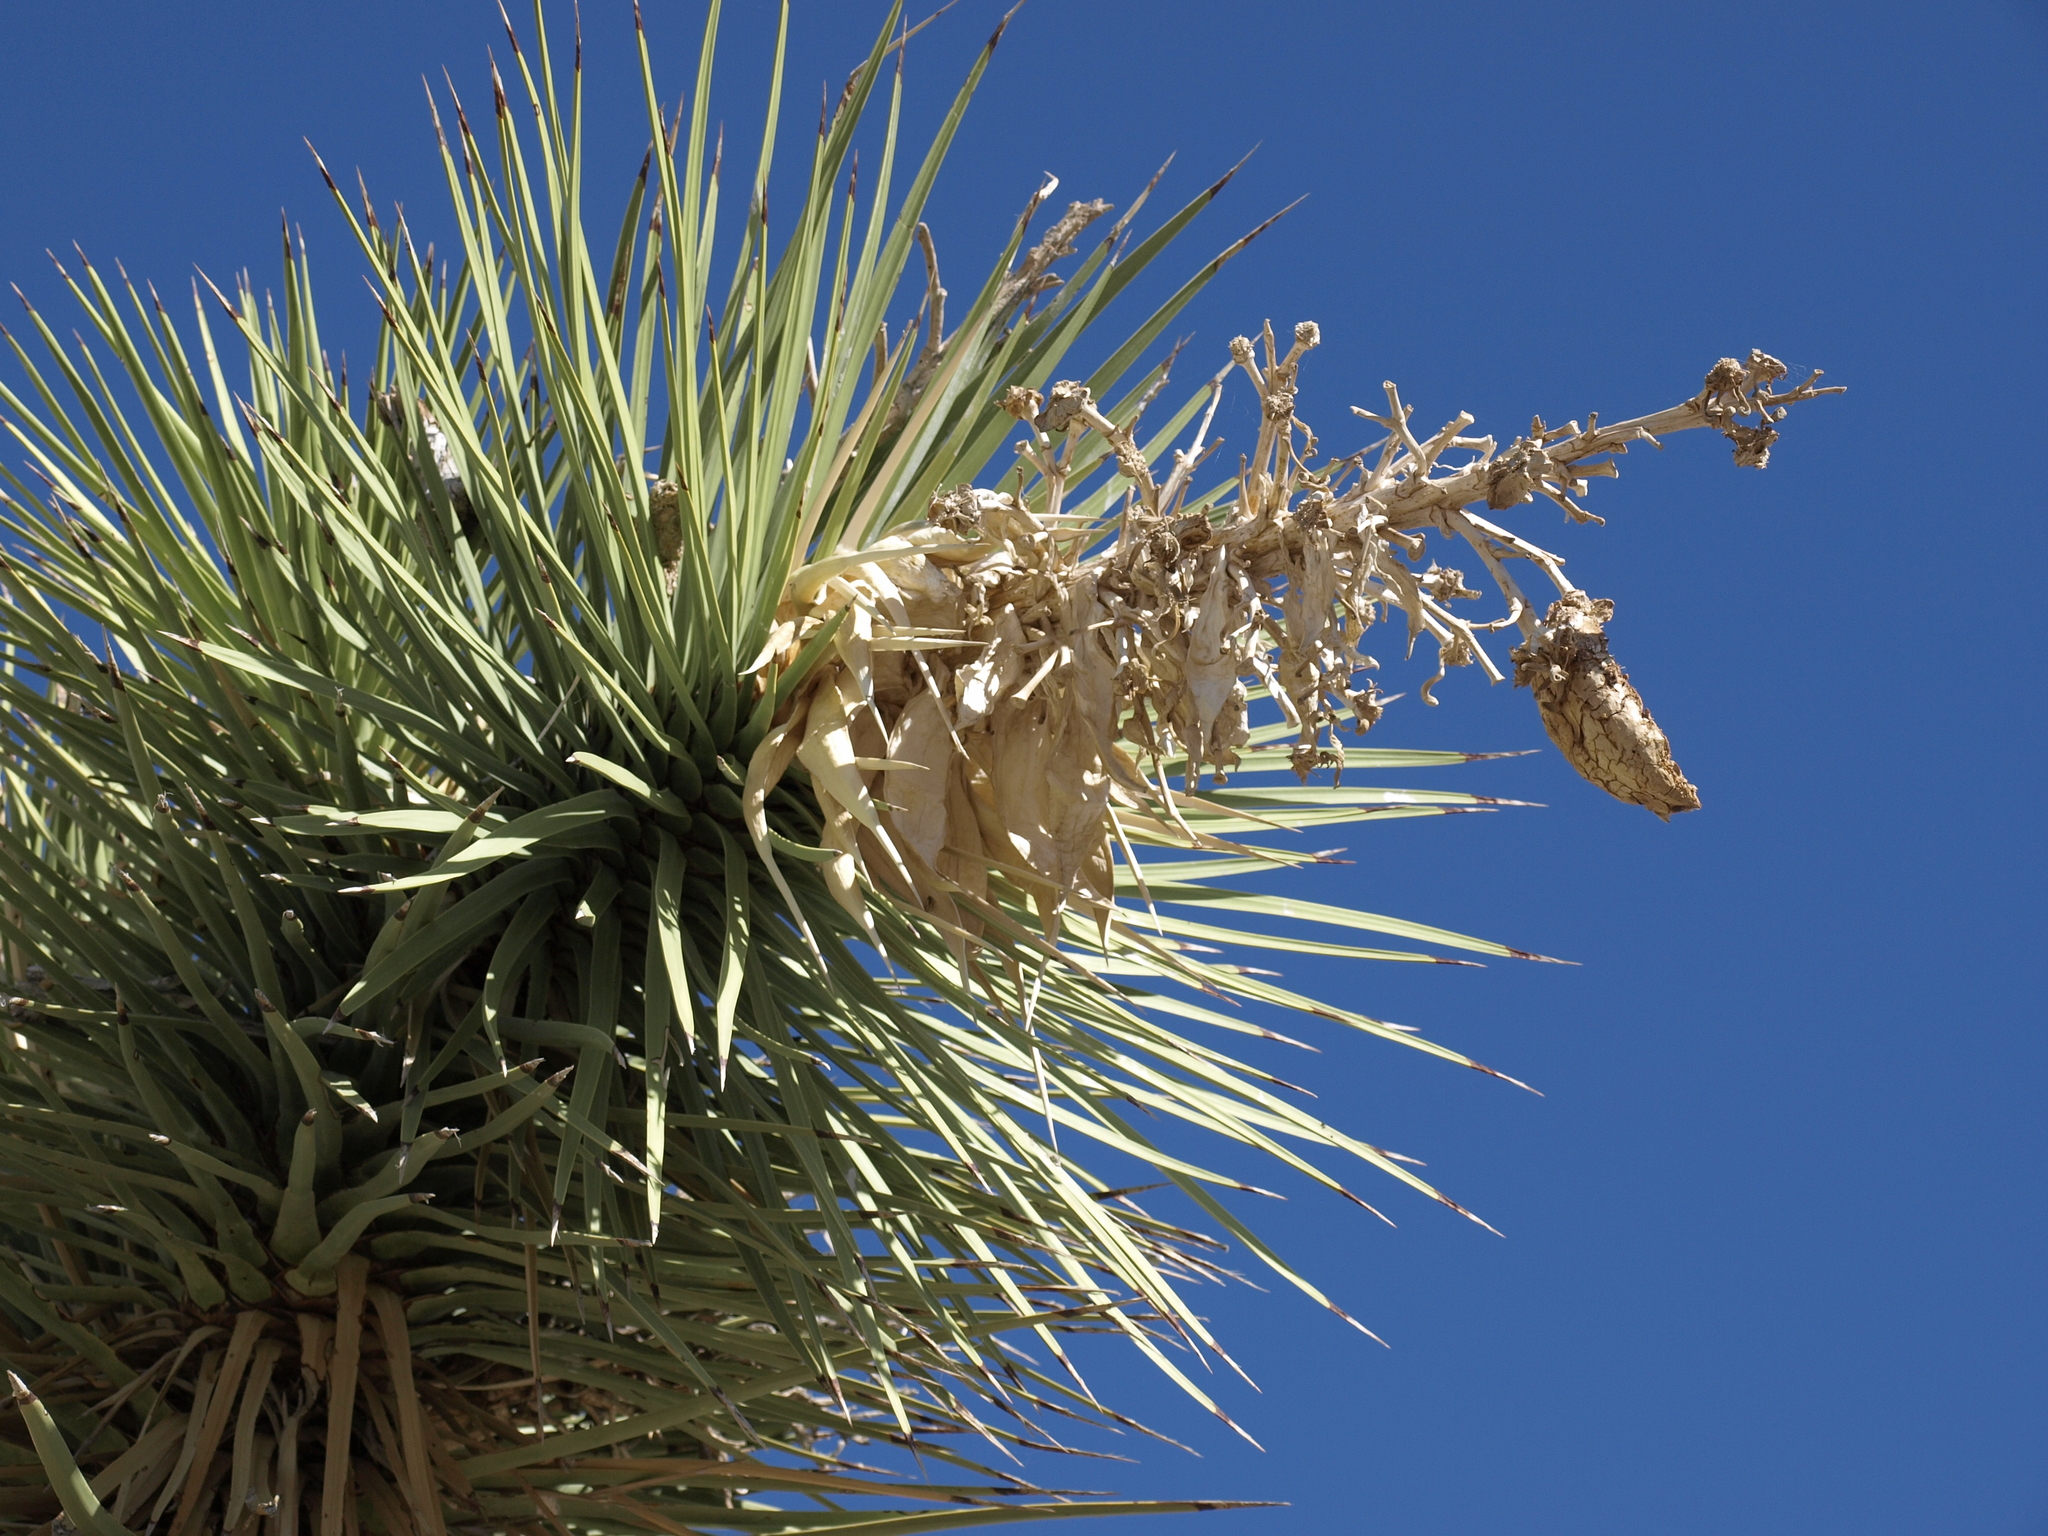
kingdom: Plantae
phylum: Tracheophyta
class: Liliopsida
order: Asparagales
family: Asparagaceae
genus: Yucca
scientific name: Yucca brevifolia
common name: Joshua tree
